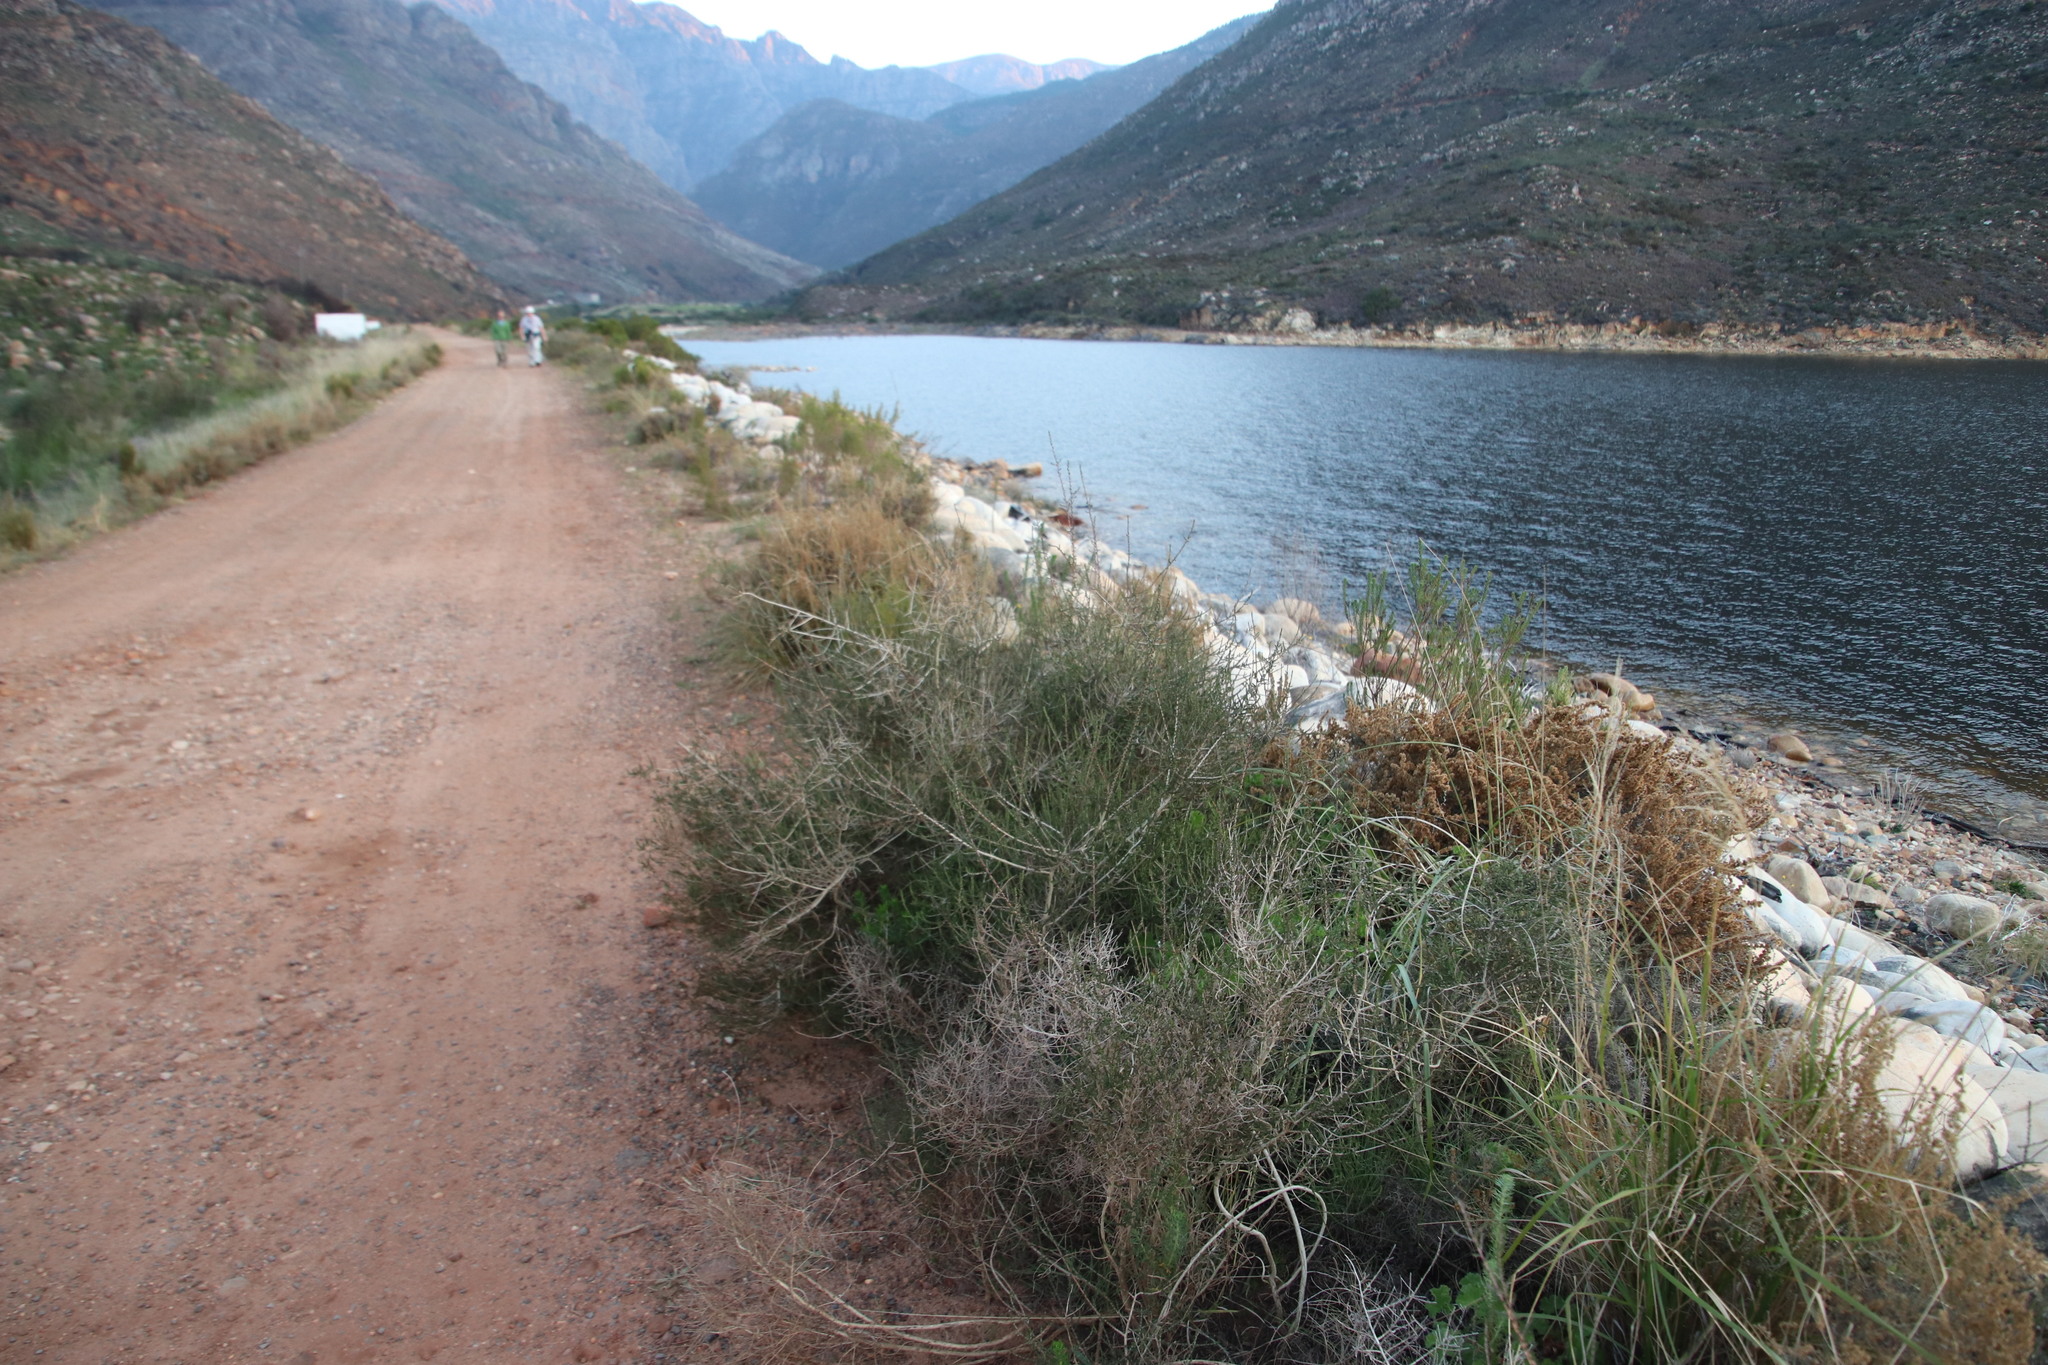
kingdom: Plantae
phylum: Tracheophyta
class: Magnoliopsida
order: Fabales
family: Fabaceae
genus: Aspalathus
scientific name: Aspalathus hispida
